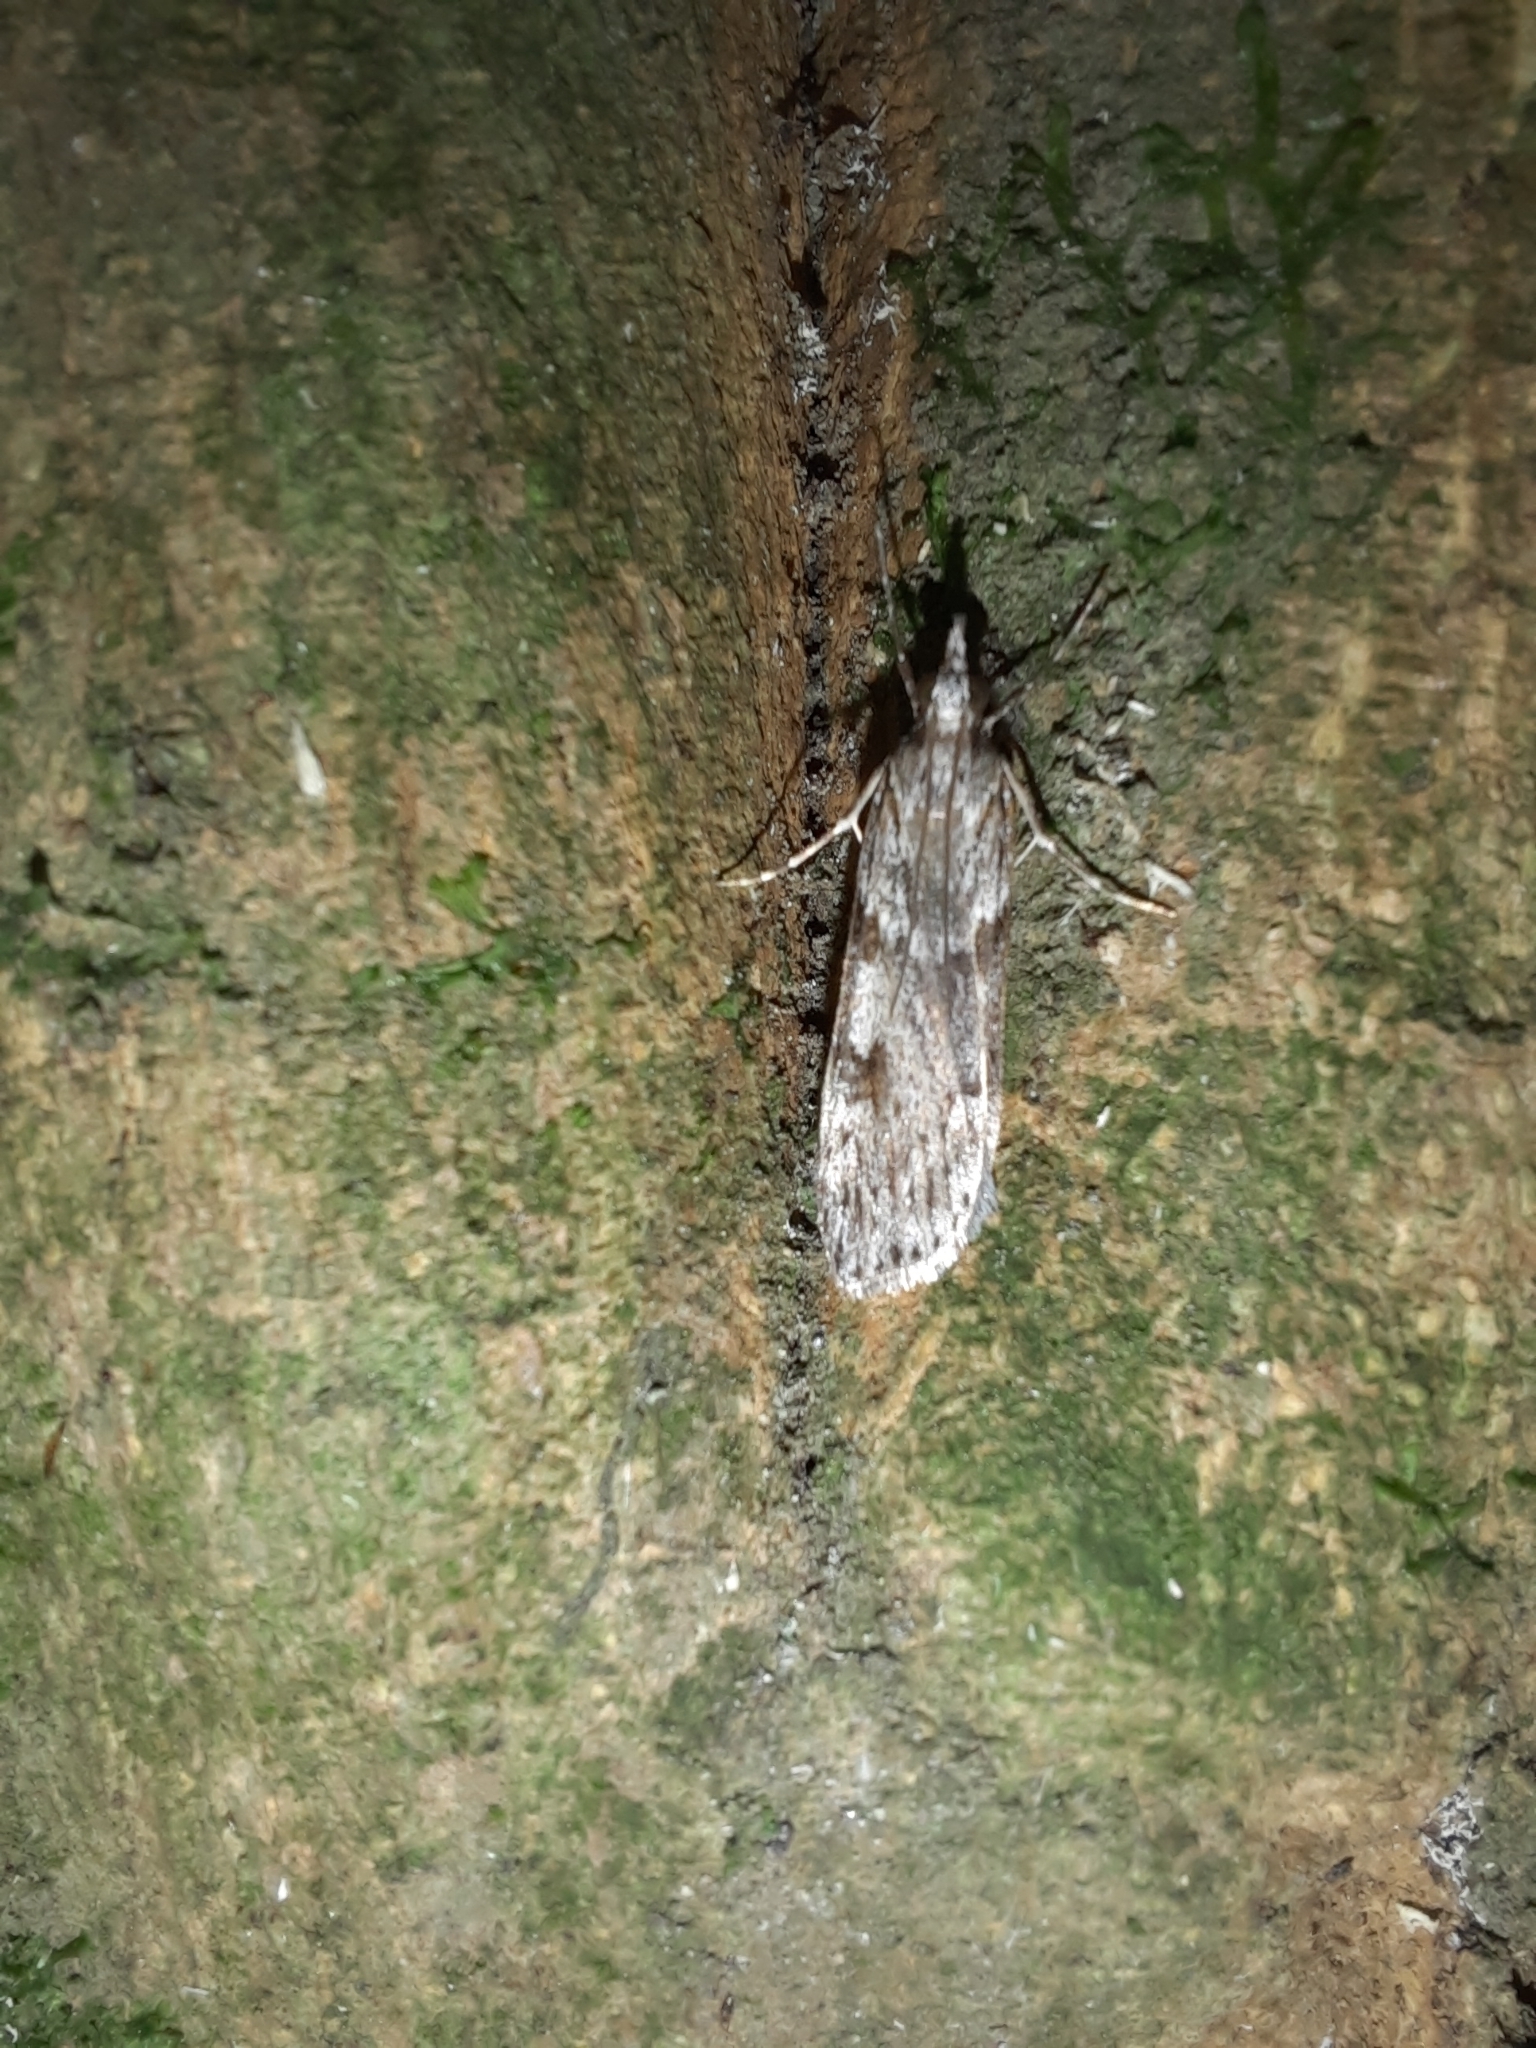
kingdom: Animalia
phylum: Arthropoda
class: Insecta
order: Lepidoptera
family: Crambidae
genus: Scoparia
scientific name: Scoparia halopis
